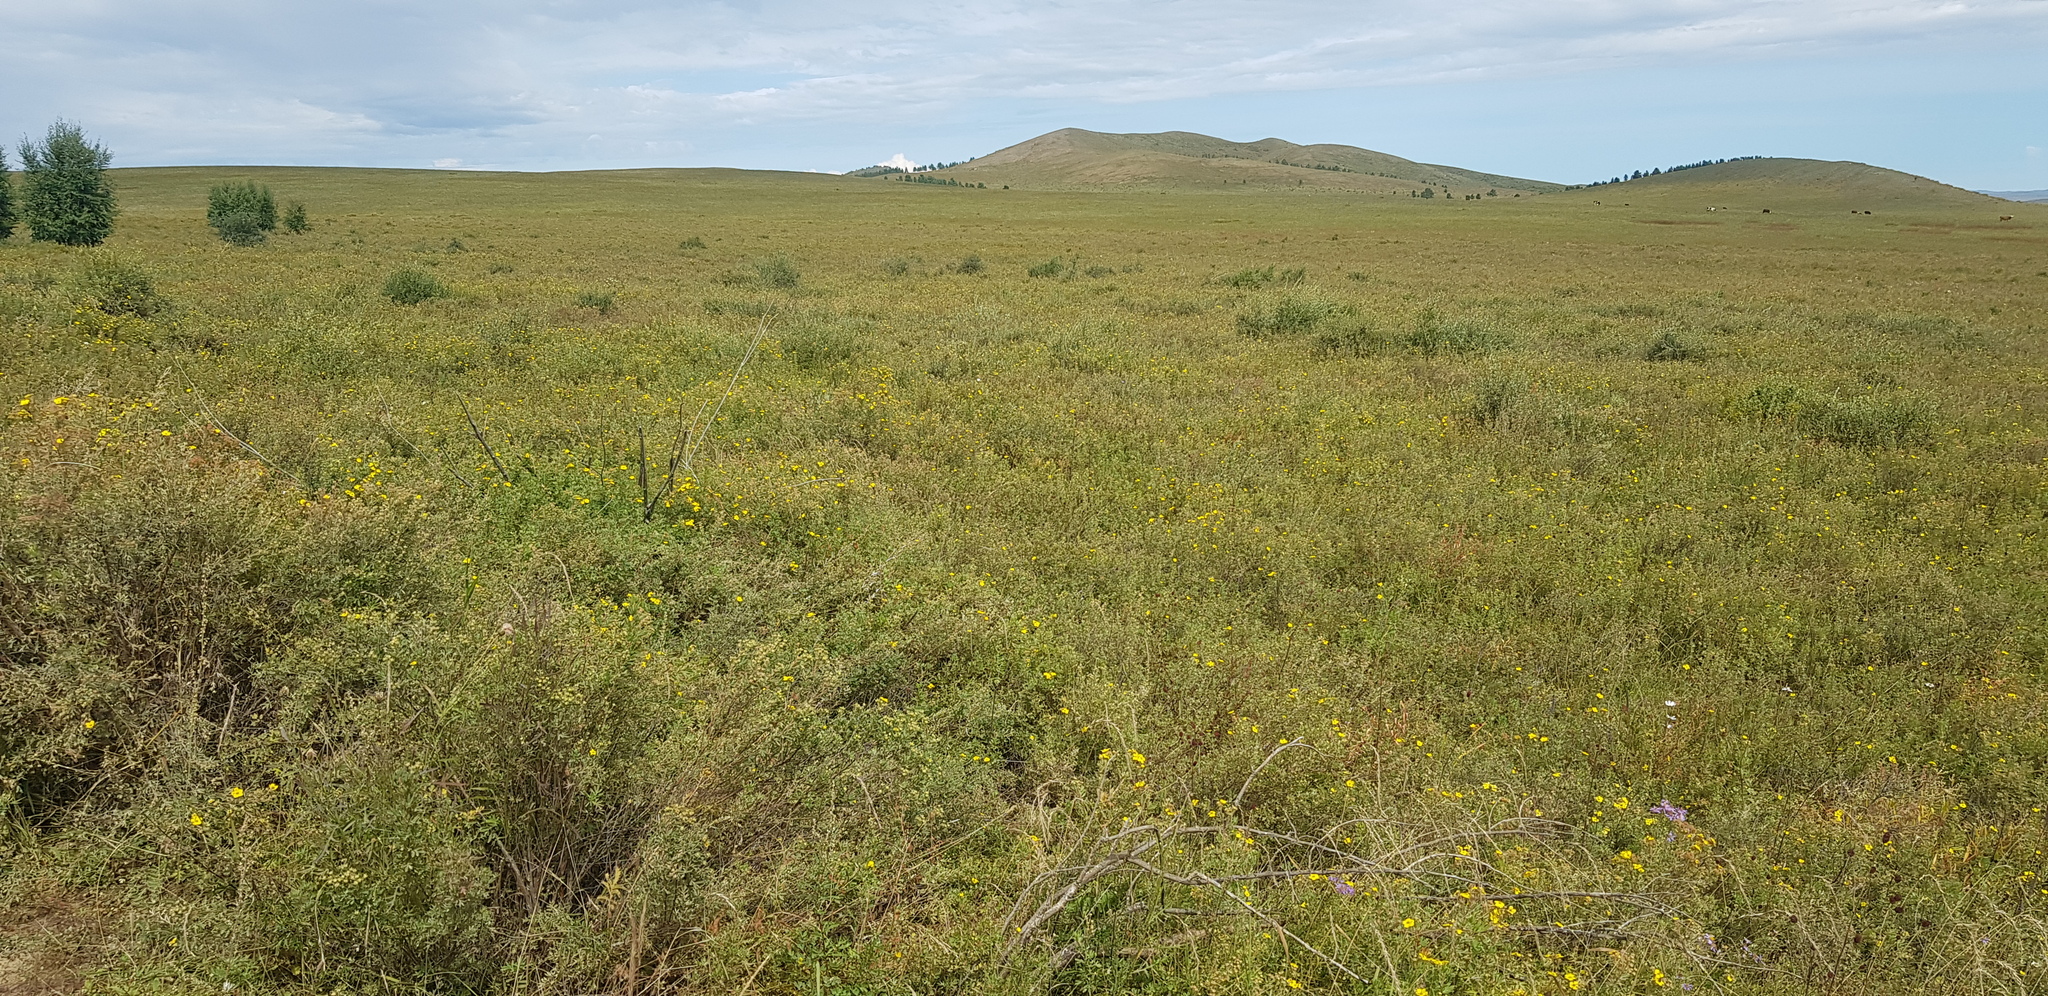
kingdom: Plantae
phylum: Tracheophyta
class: Magnoliopsida
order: Rosales
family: Rosaceae
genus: Dasiphora
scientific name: Dasiphora parvifolia
